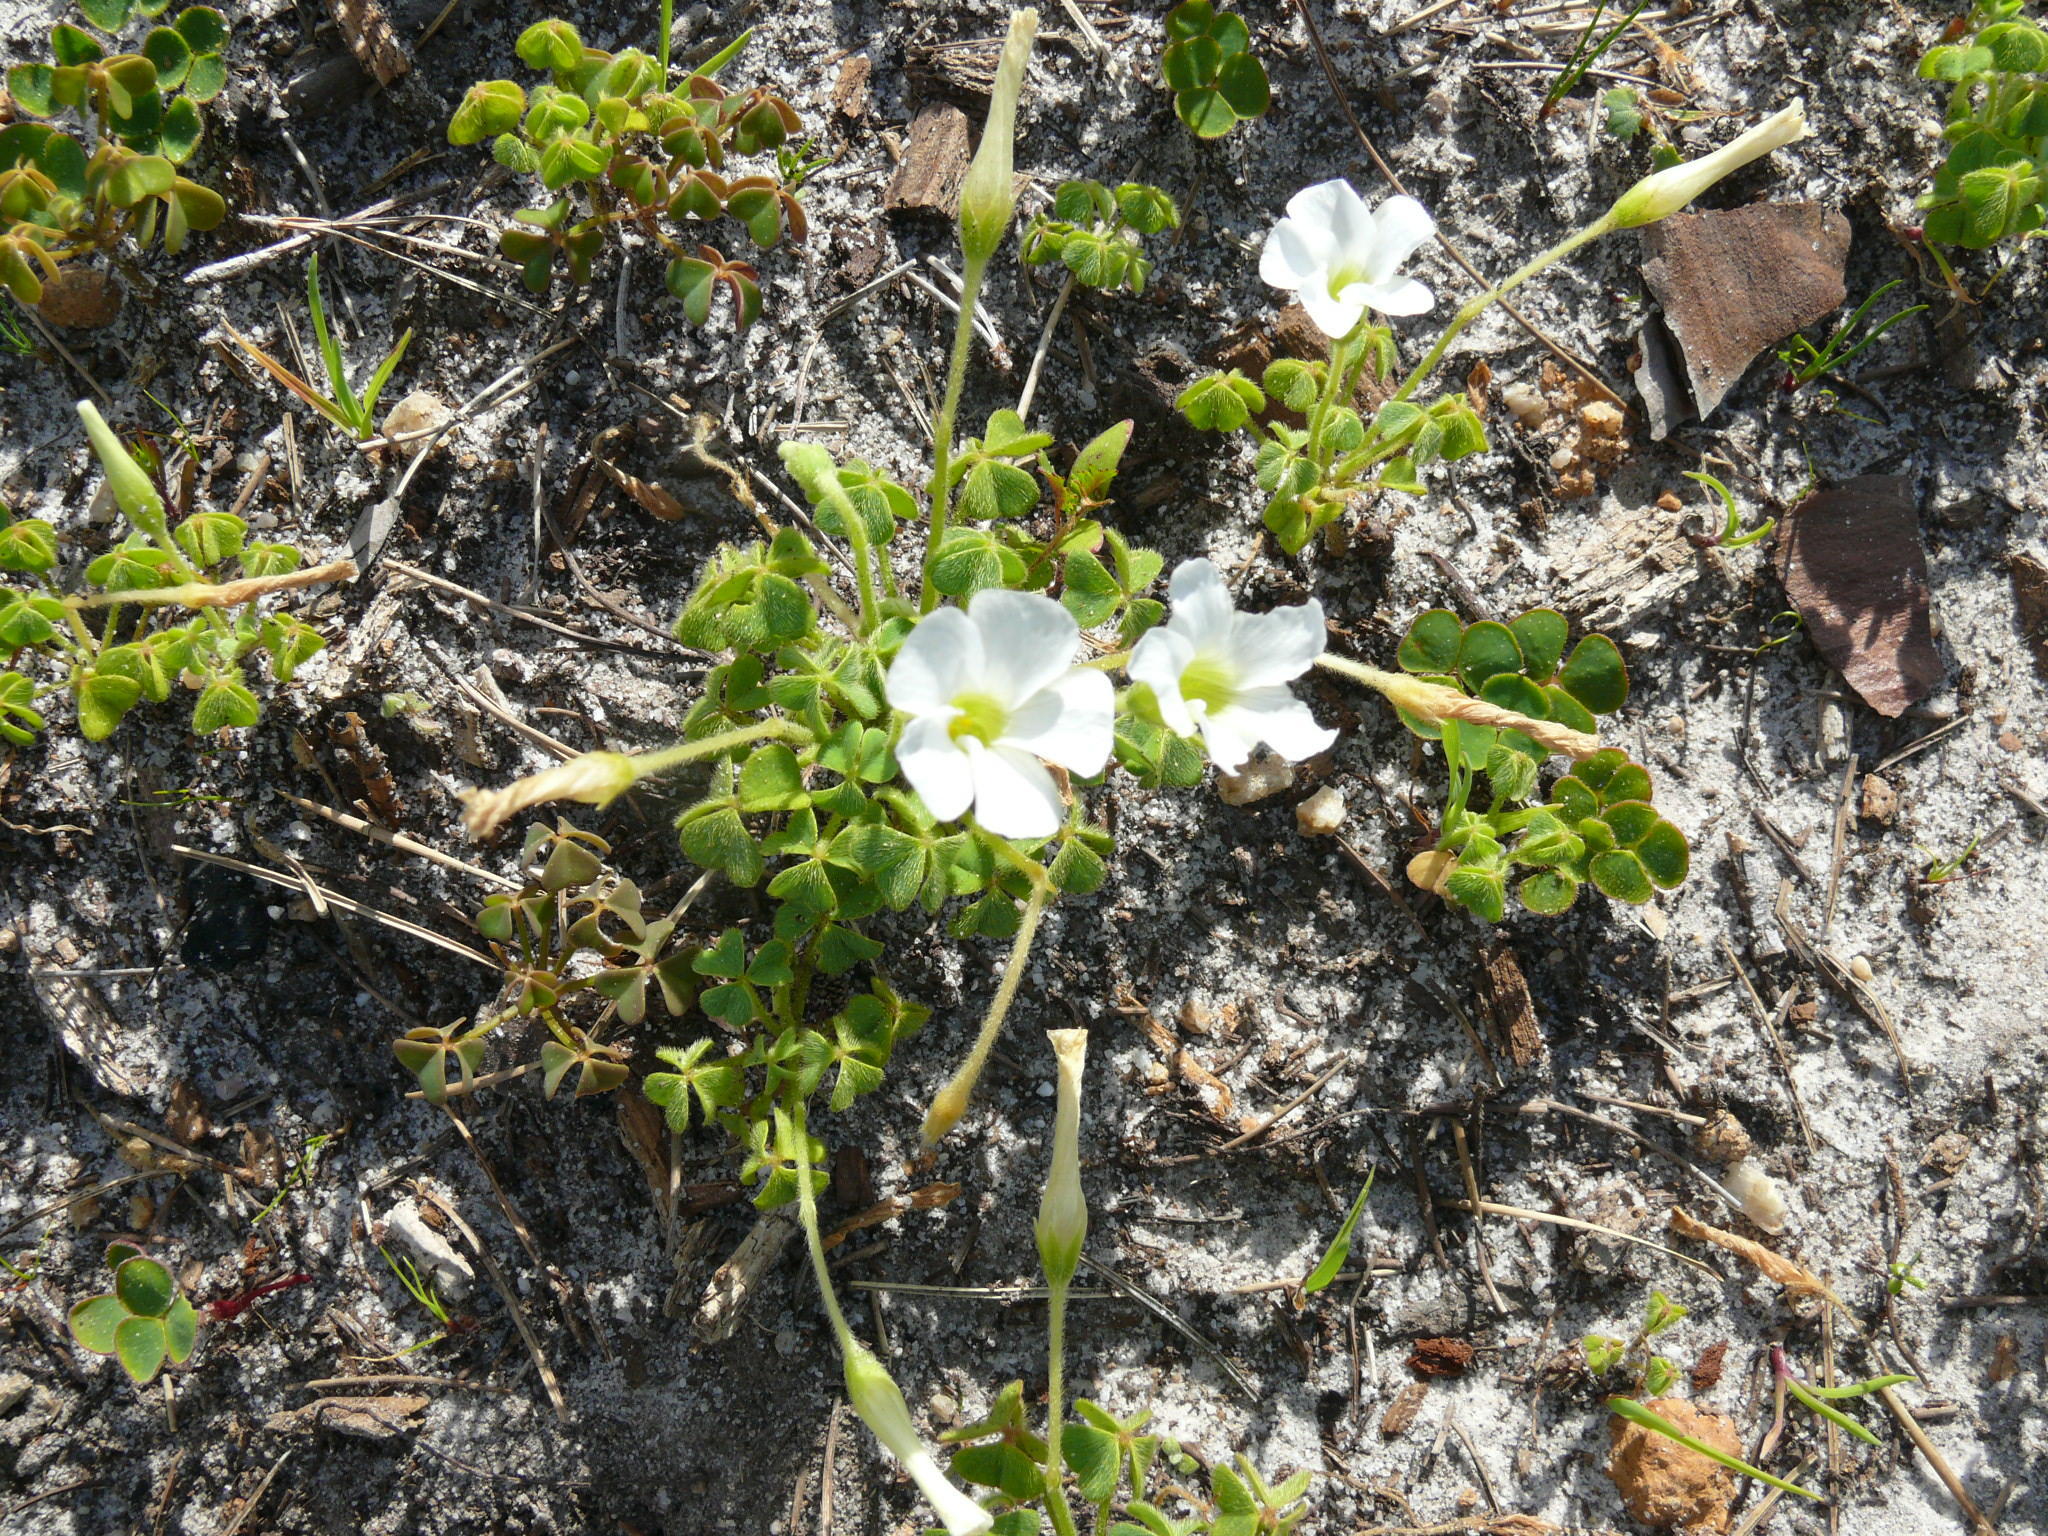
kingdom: Plantae
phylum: Tracheophyta
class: Magnoliopsida
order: Oxalidales
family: Oxalidaceae
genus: Oxalis
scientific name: Oxalis lanata
